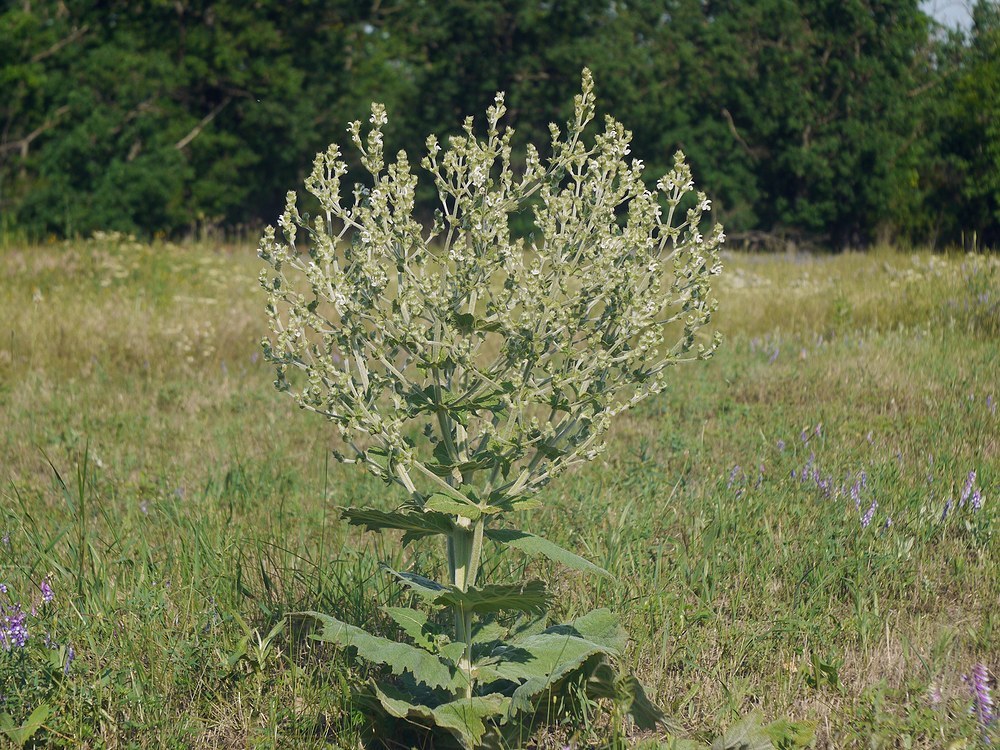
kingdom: Plantae
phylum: Tracheophyta
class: Magnoliopsida
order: Lamiales
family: Lamiaceae
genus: Salvia
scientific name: Salvia aethiopis
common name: Mediterranean sage
